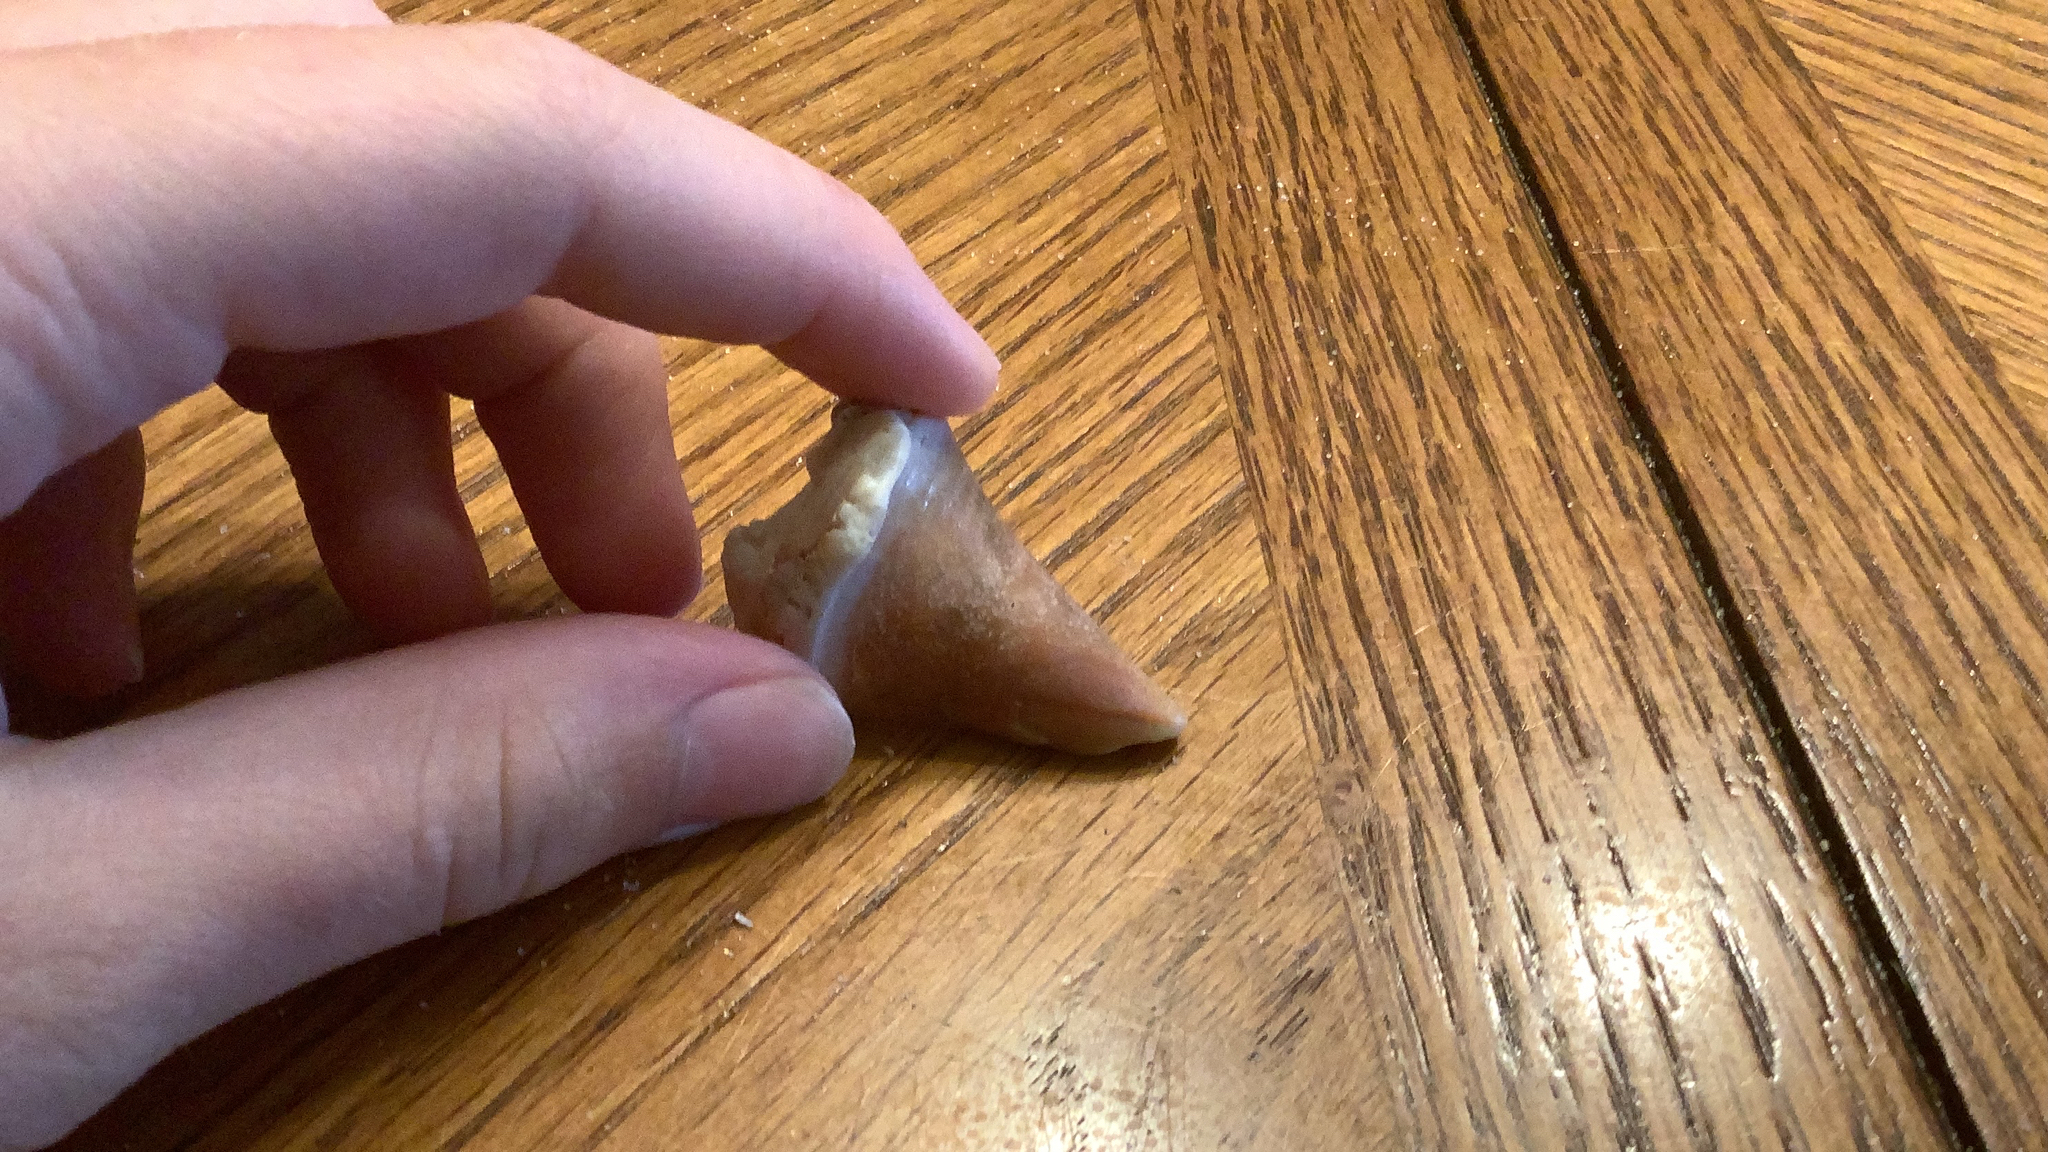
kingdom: Animalia
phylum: Mollusca
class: Gastropoda
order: Littorinimorpha
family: Strombidae
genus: Strombus
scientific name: Strombus alatus
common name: Florida fighting conch
